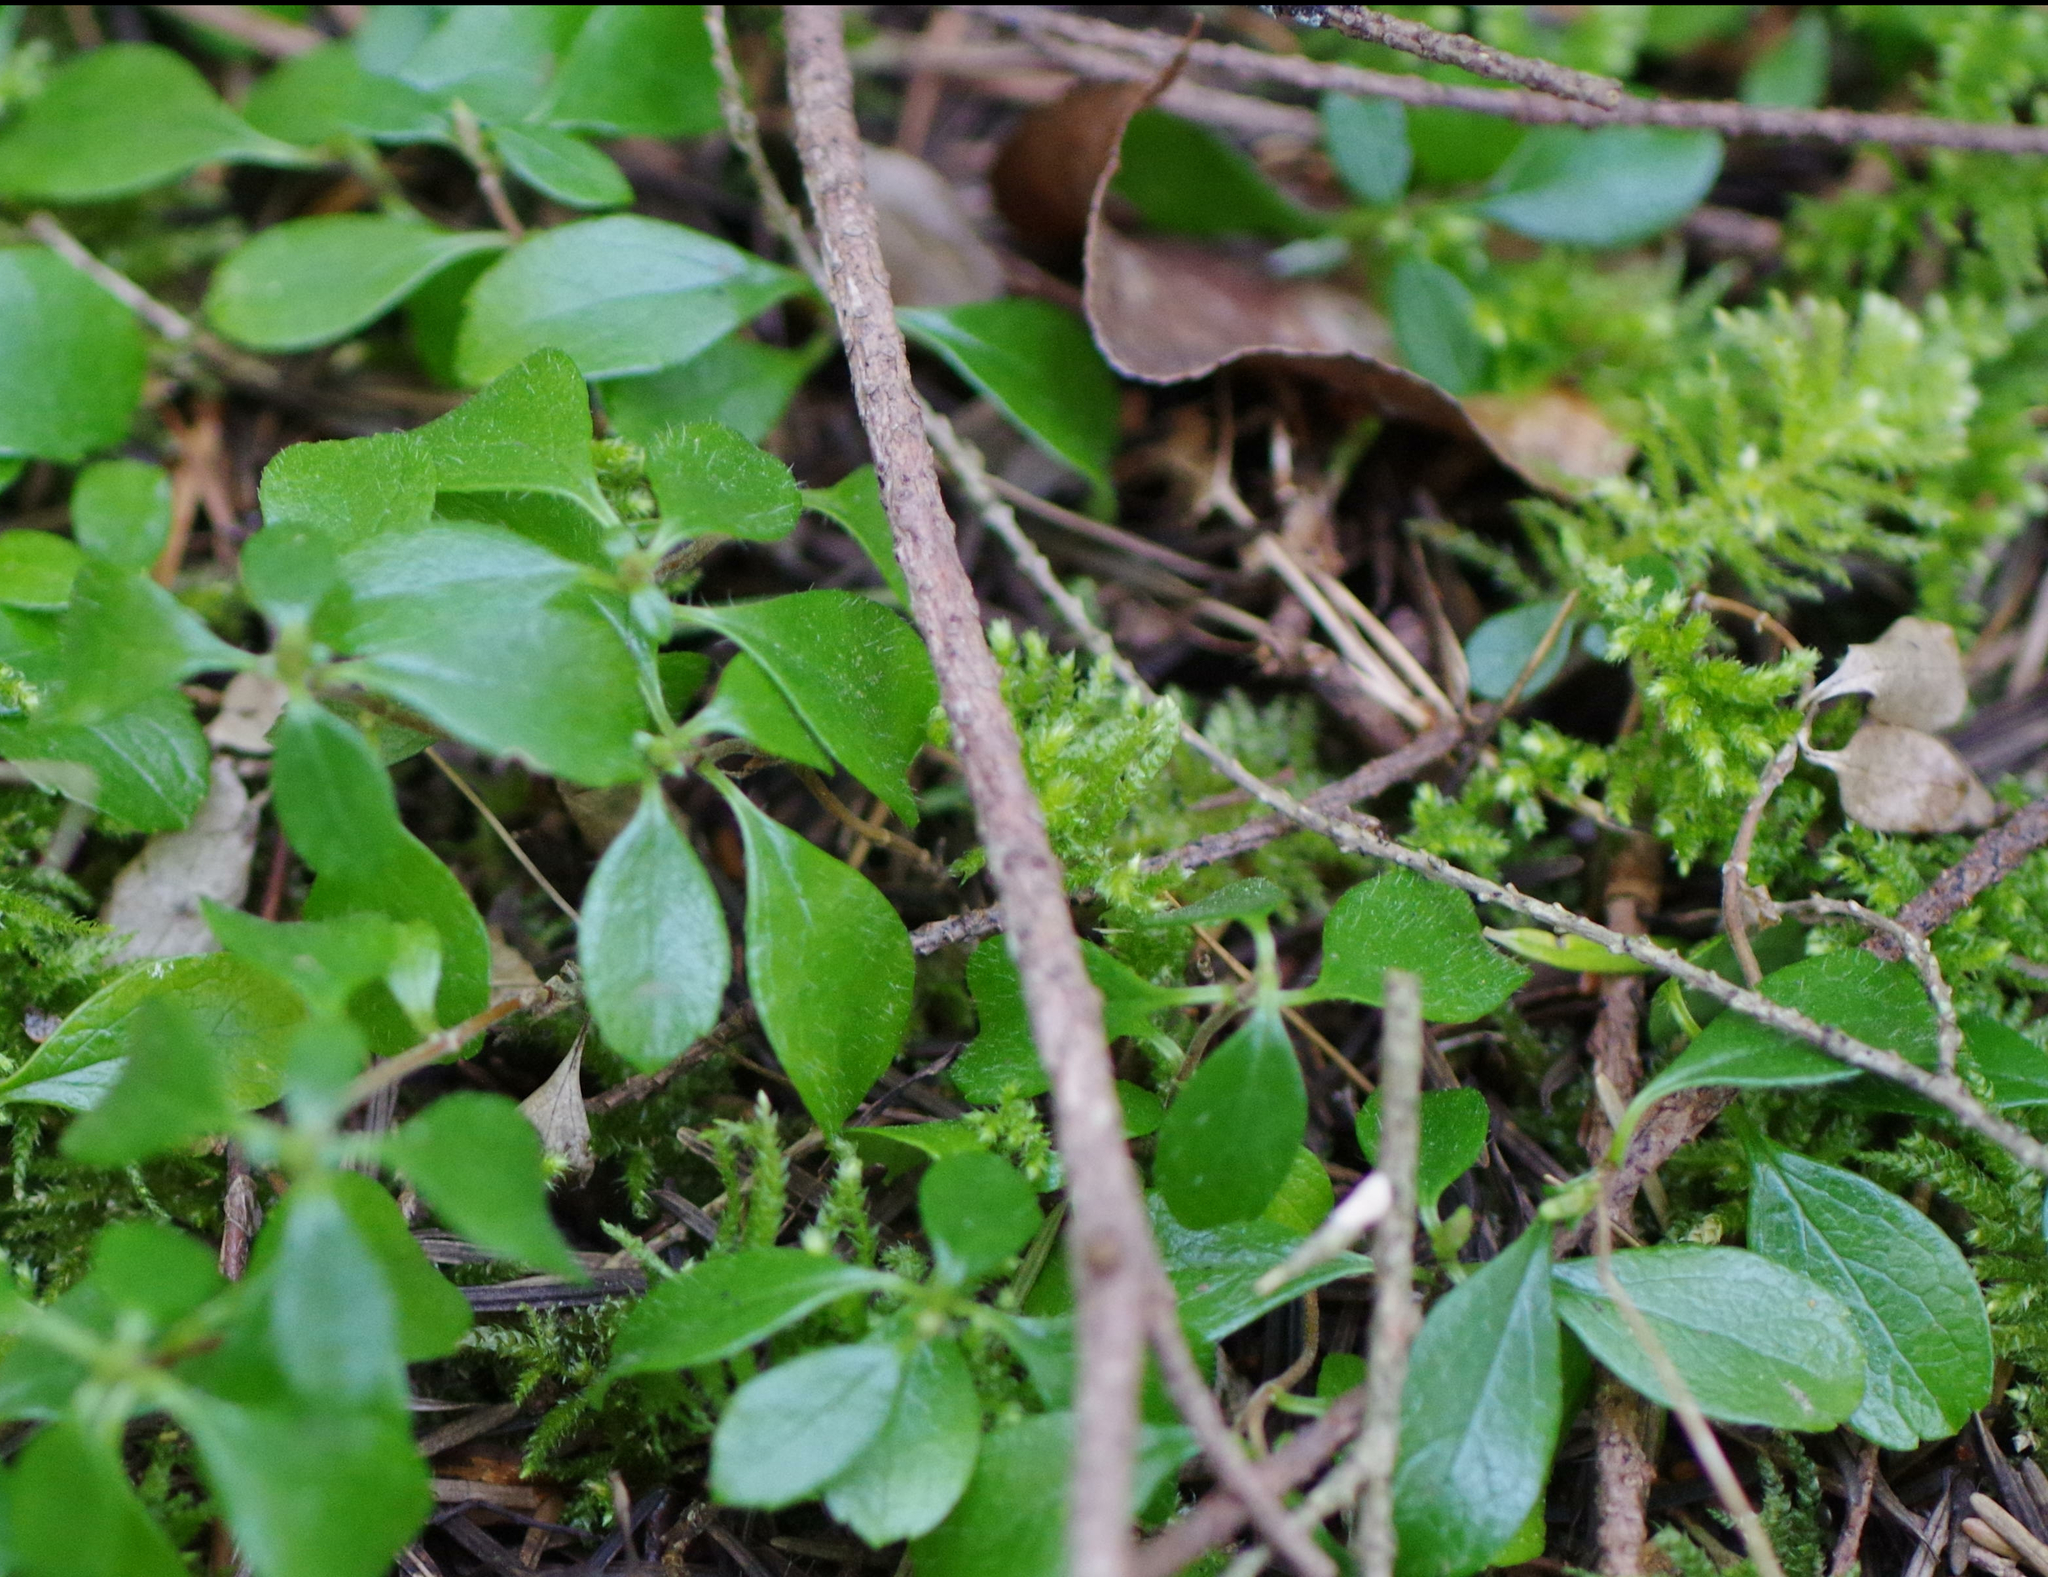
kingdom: Plantae
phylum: Tracheophyta
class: Magnoliopsida
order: Dipsacales
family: Caprifoliaceae
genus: Linnaea
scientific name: Linnaea borealis
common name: Twinflower
